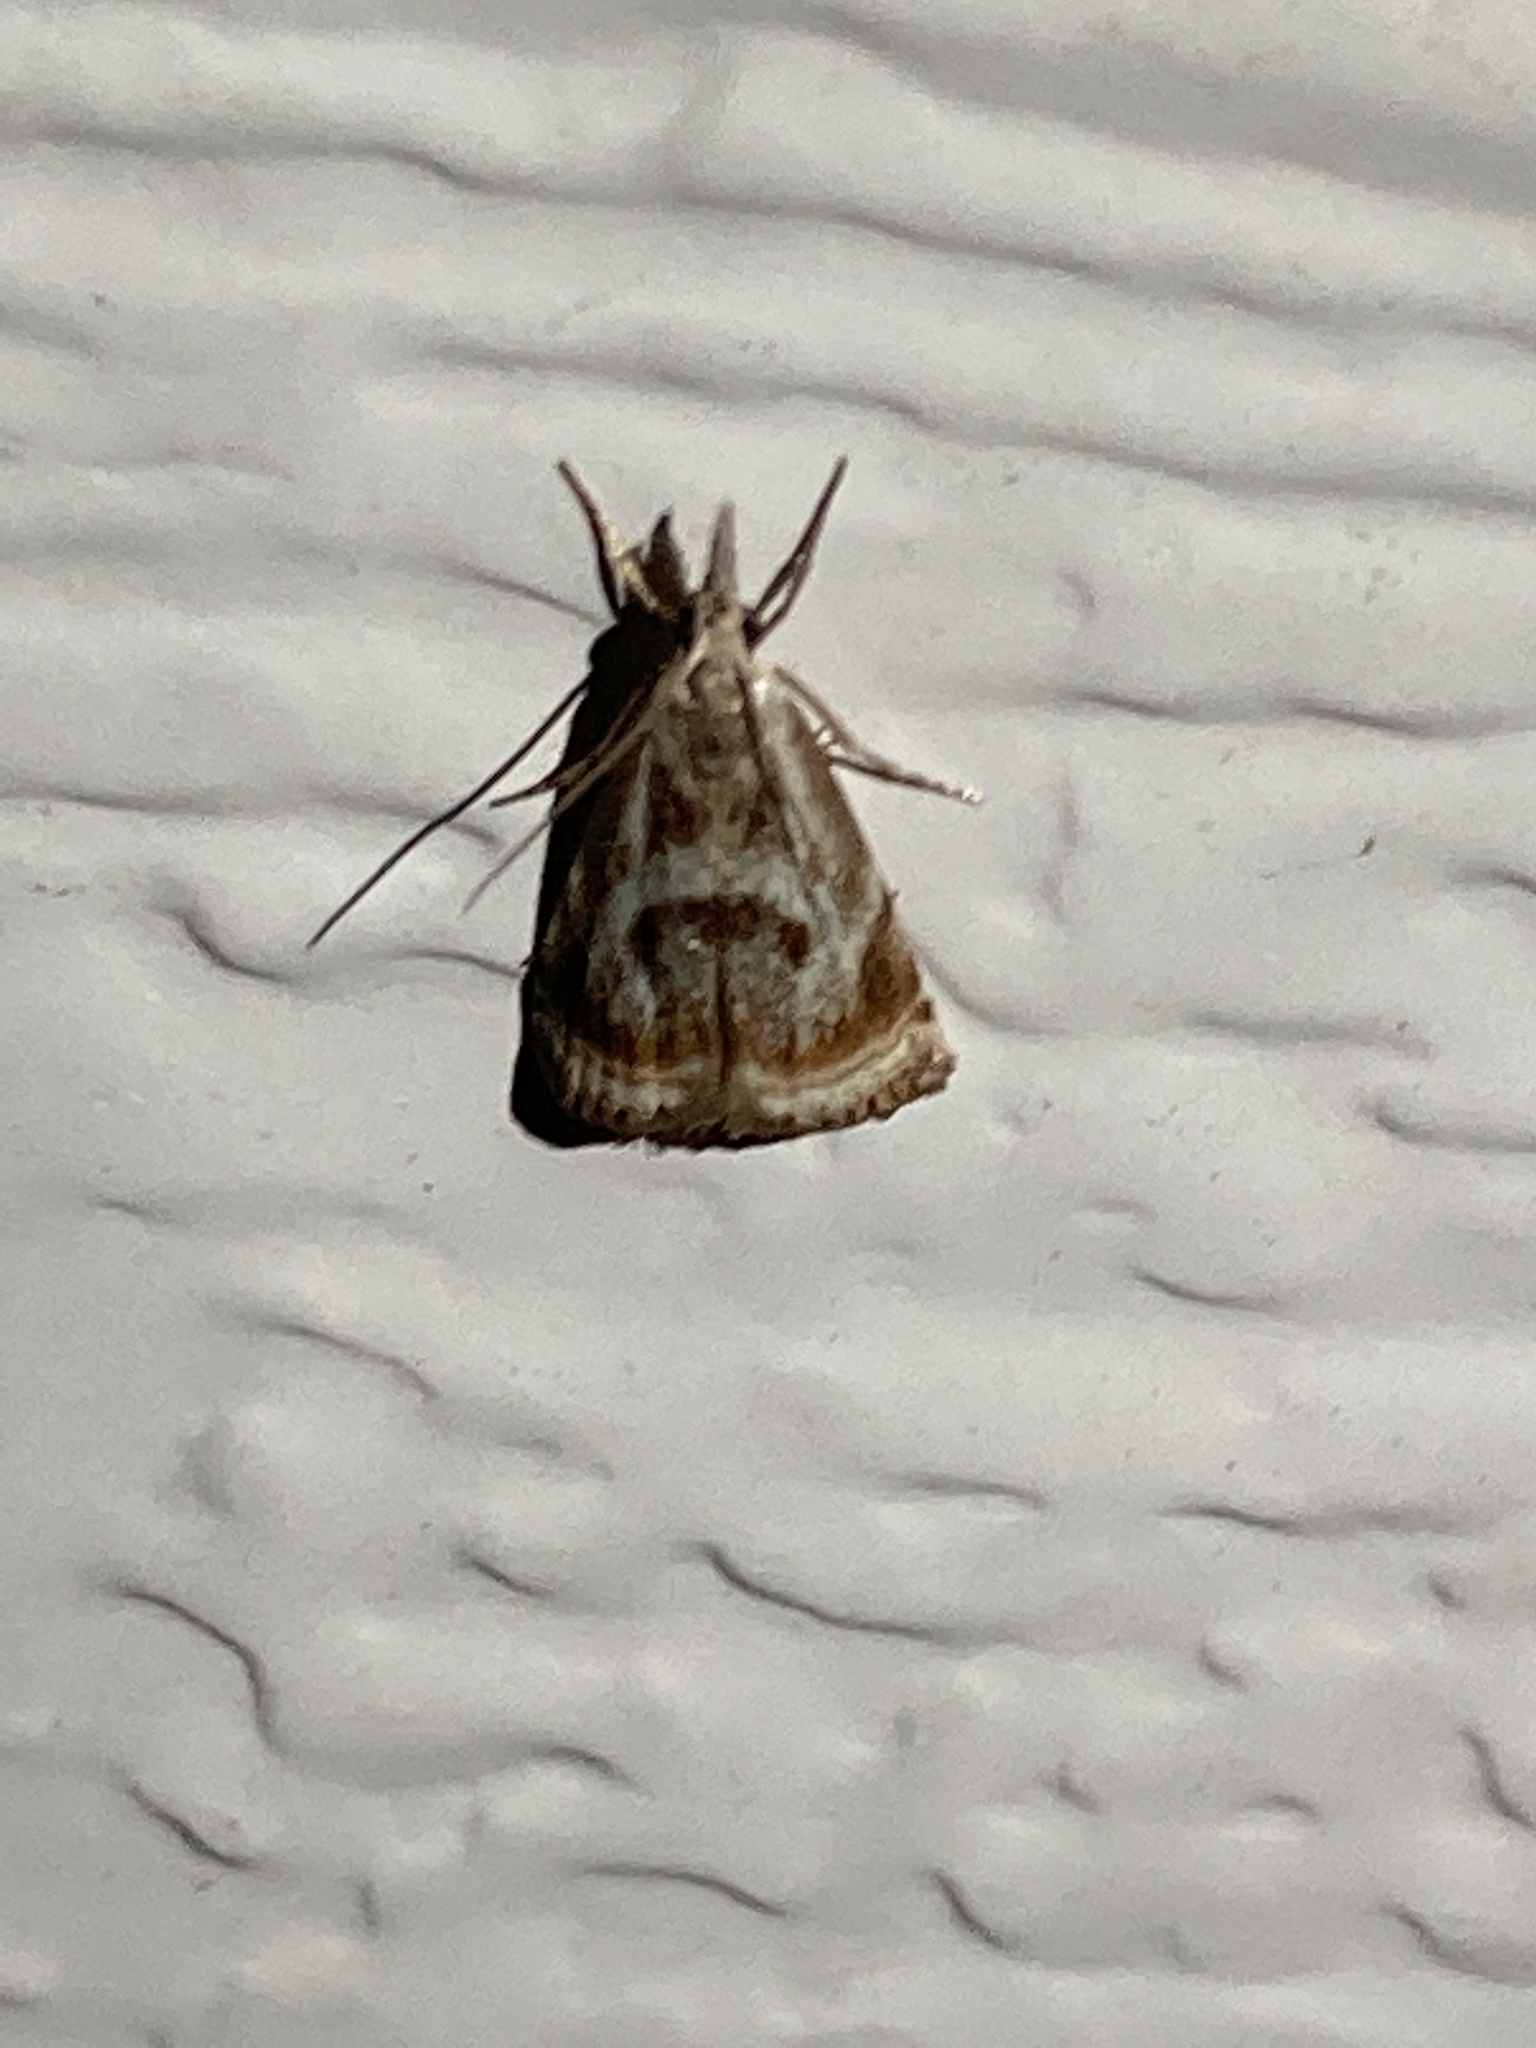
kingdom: Animalia
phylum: Arthropoda
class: Insecta
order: Lepidoptera
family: Crambidae
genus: Microcrambus
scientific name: Microcrambus elegans
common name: Elegant grass-veneer
